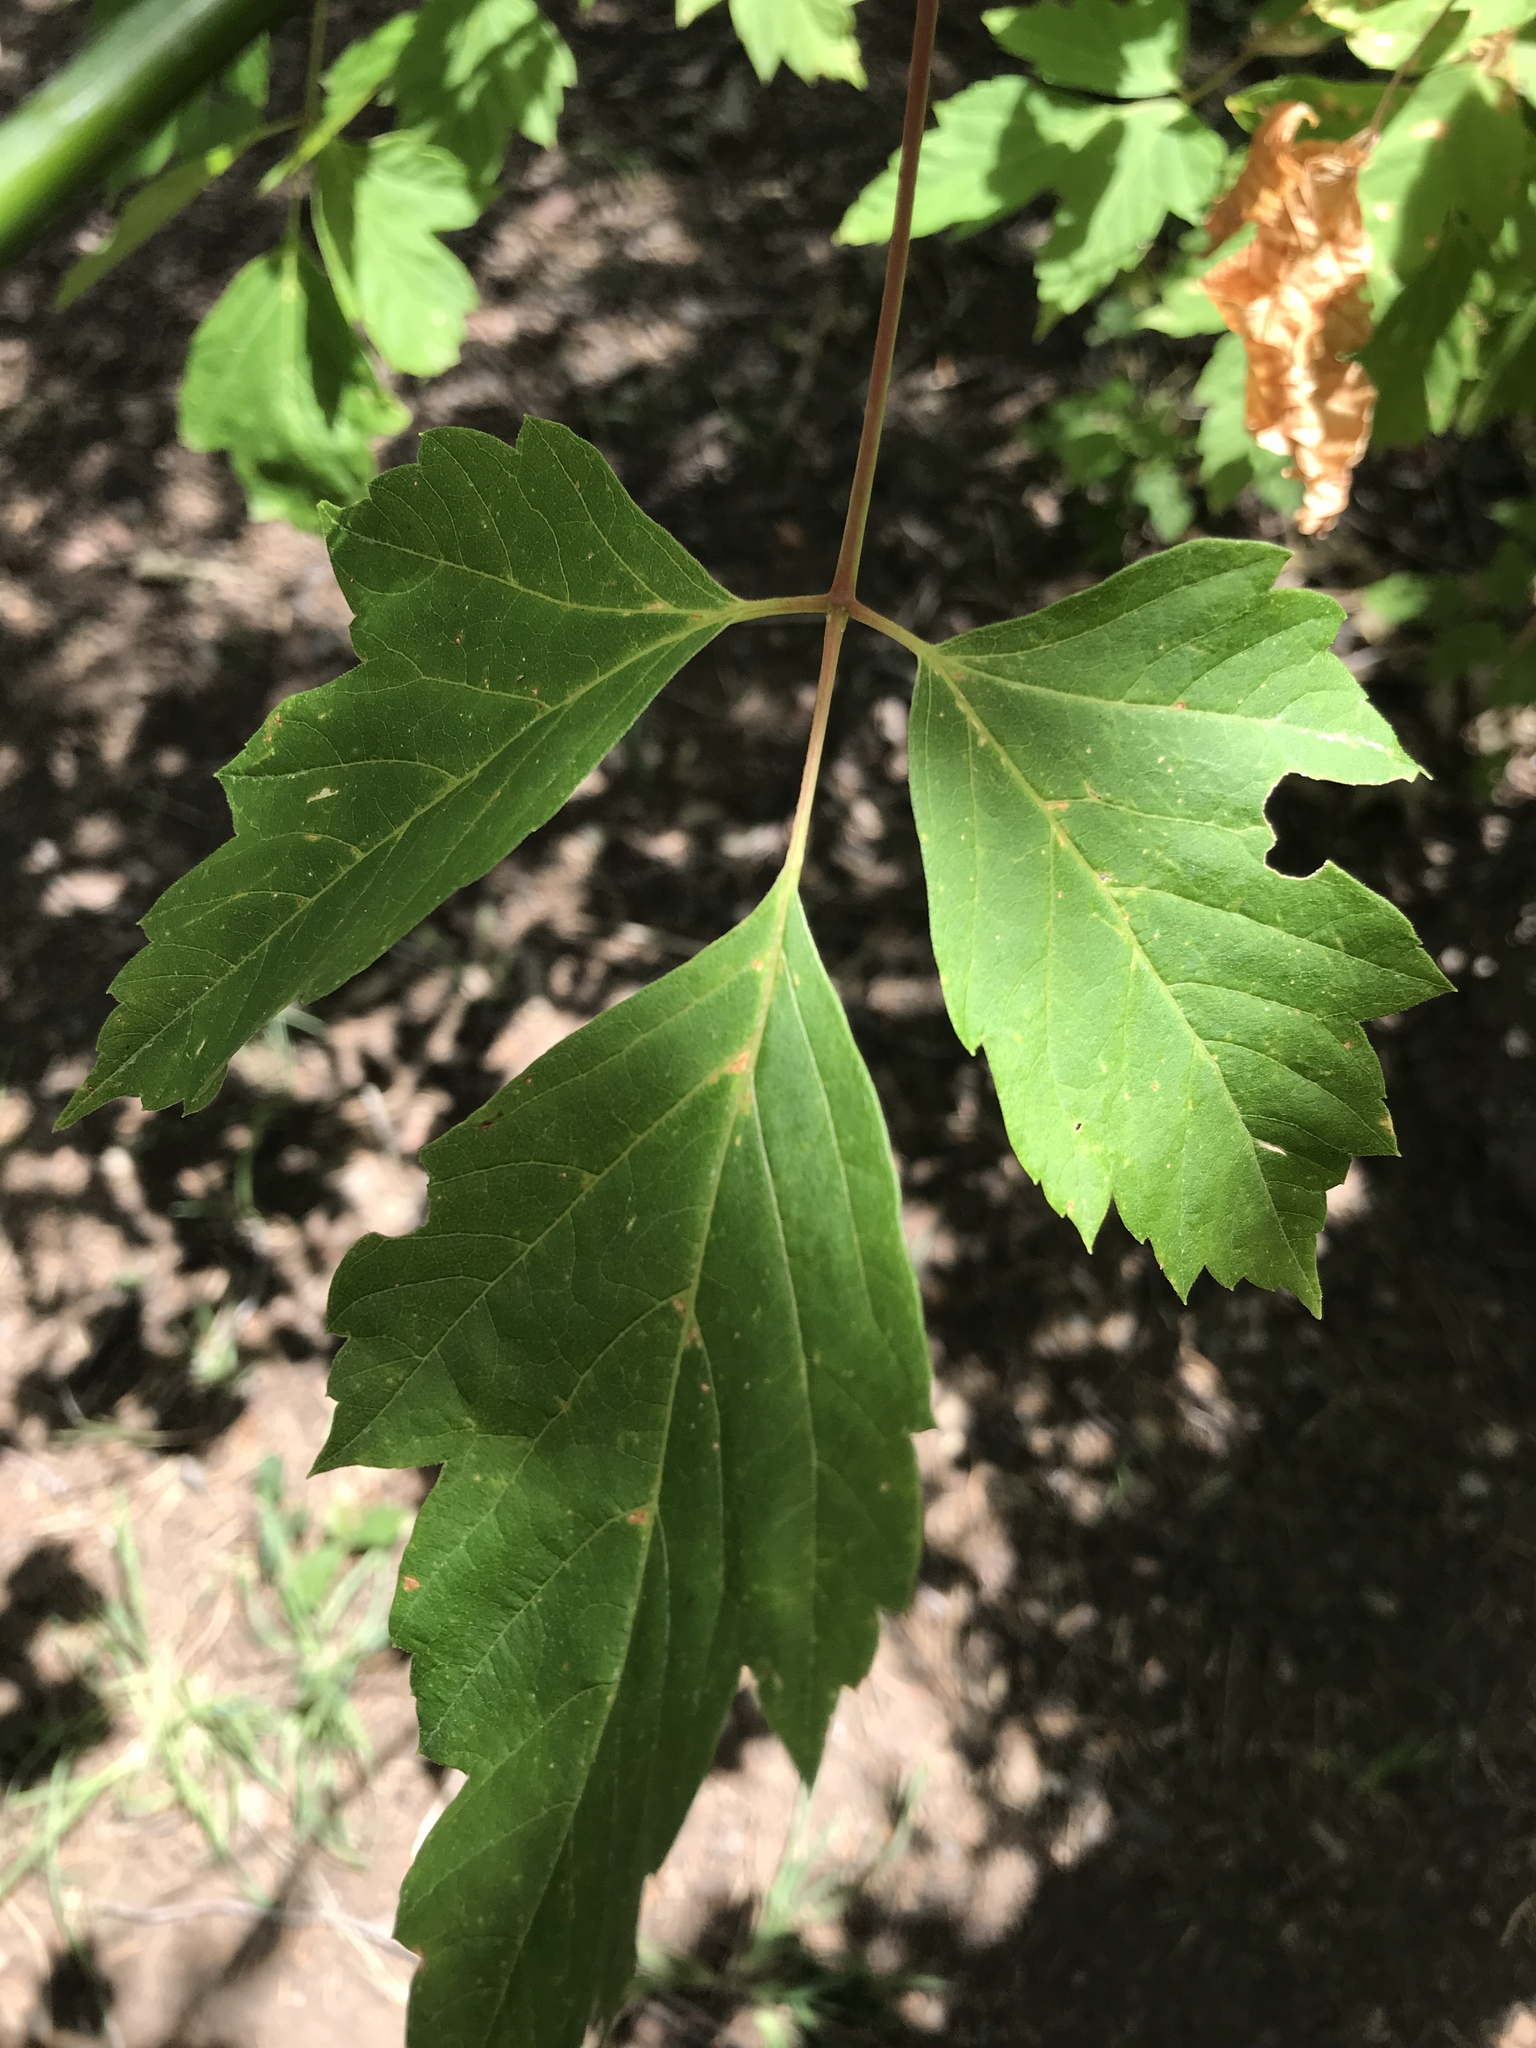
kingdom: Plantae
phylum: Tracheophyta
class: Magnoliopsida
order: Sapindales
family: Sapindaceae
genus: Acer
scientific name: Acer negundo
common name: Ashleaf maple
